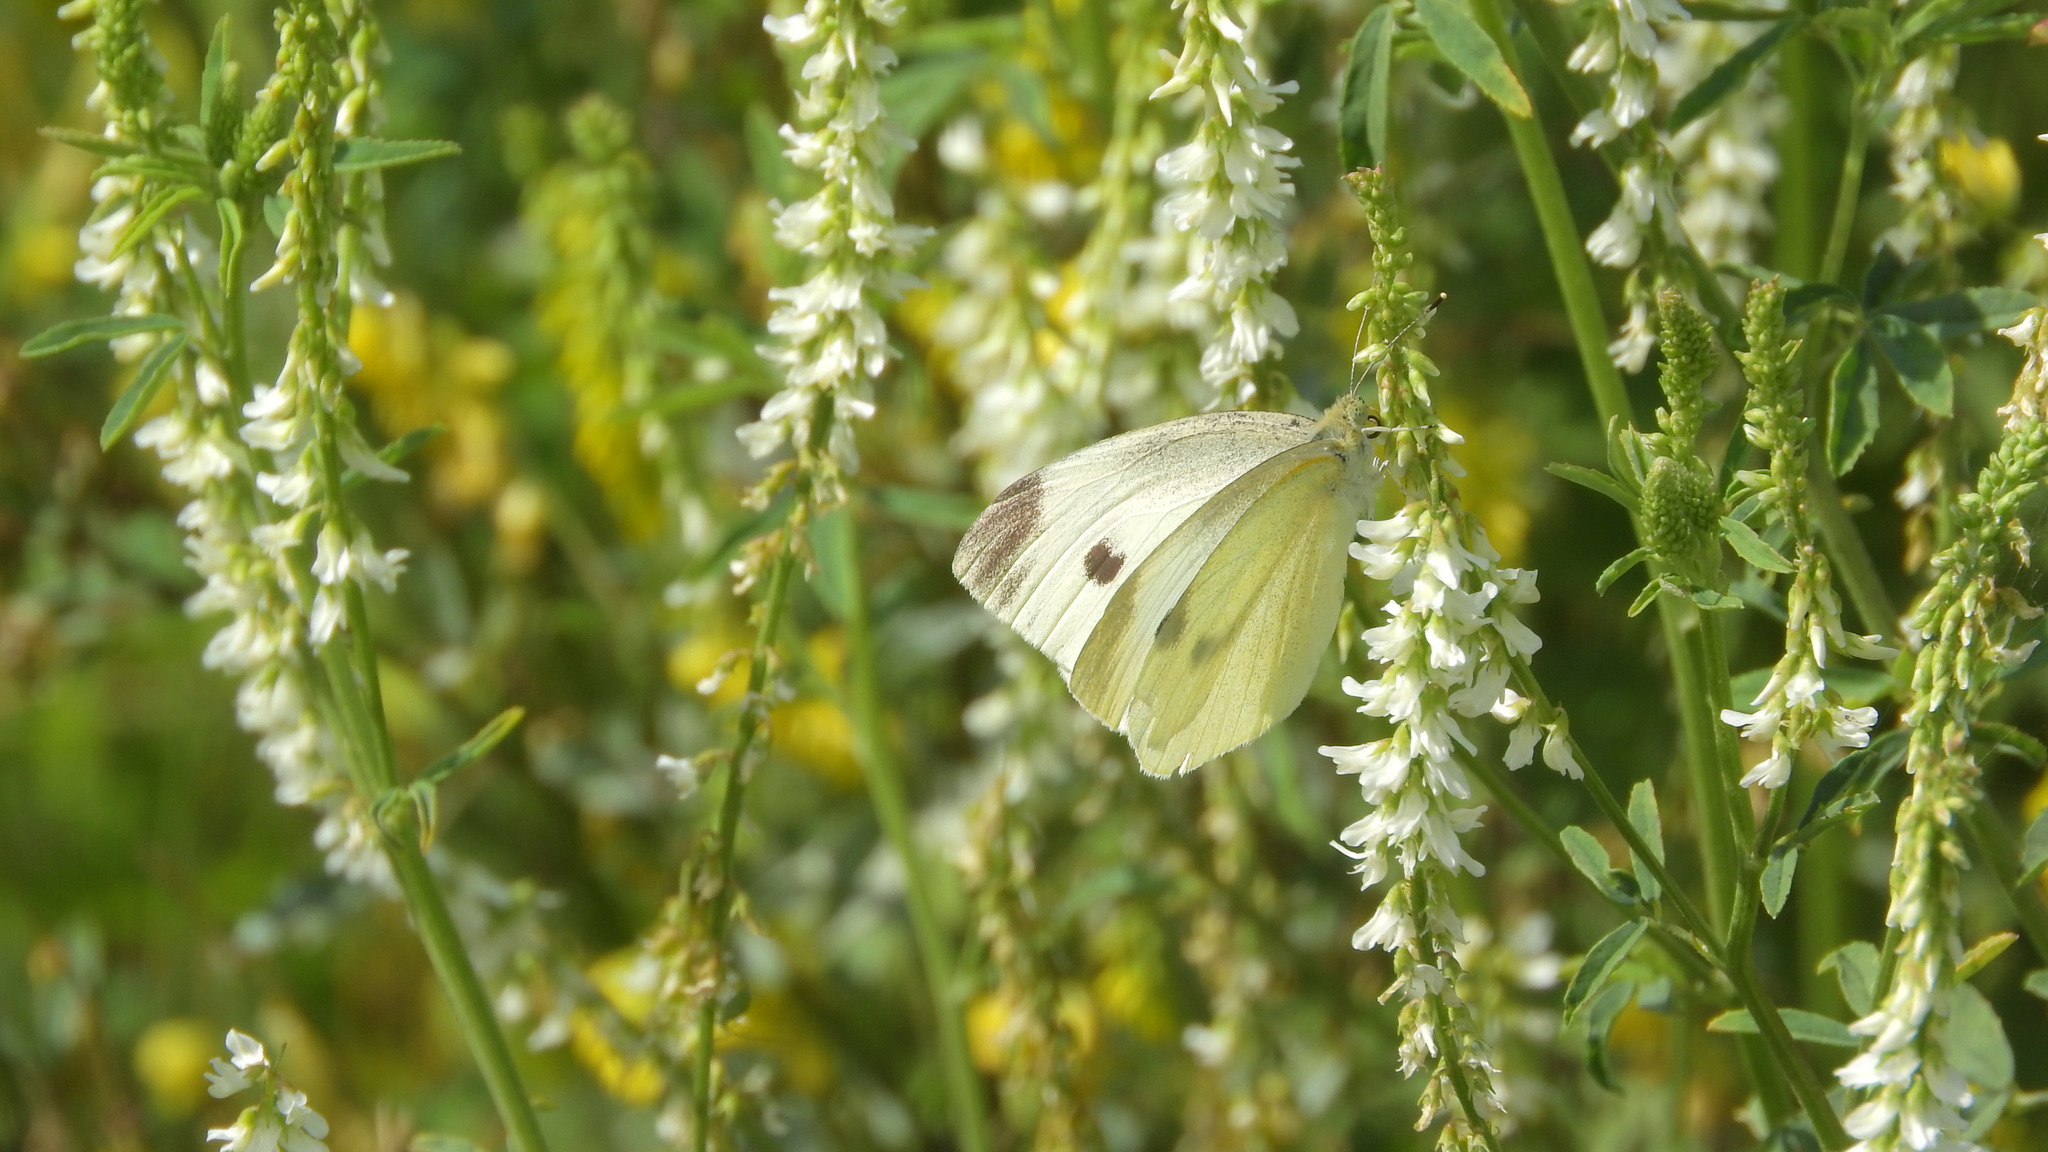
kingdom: Animalia
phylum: Arthropoda
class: Insecta
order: Lepidoptera
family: Pieridae
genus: Pieris
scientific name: Pieris rapae
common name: Small white
